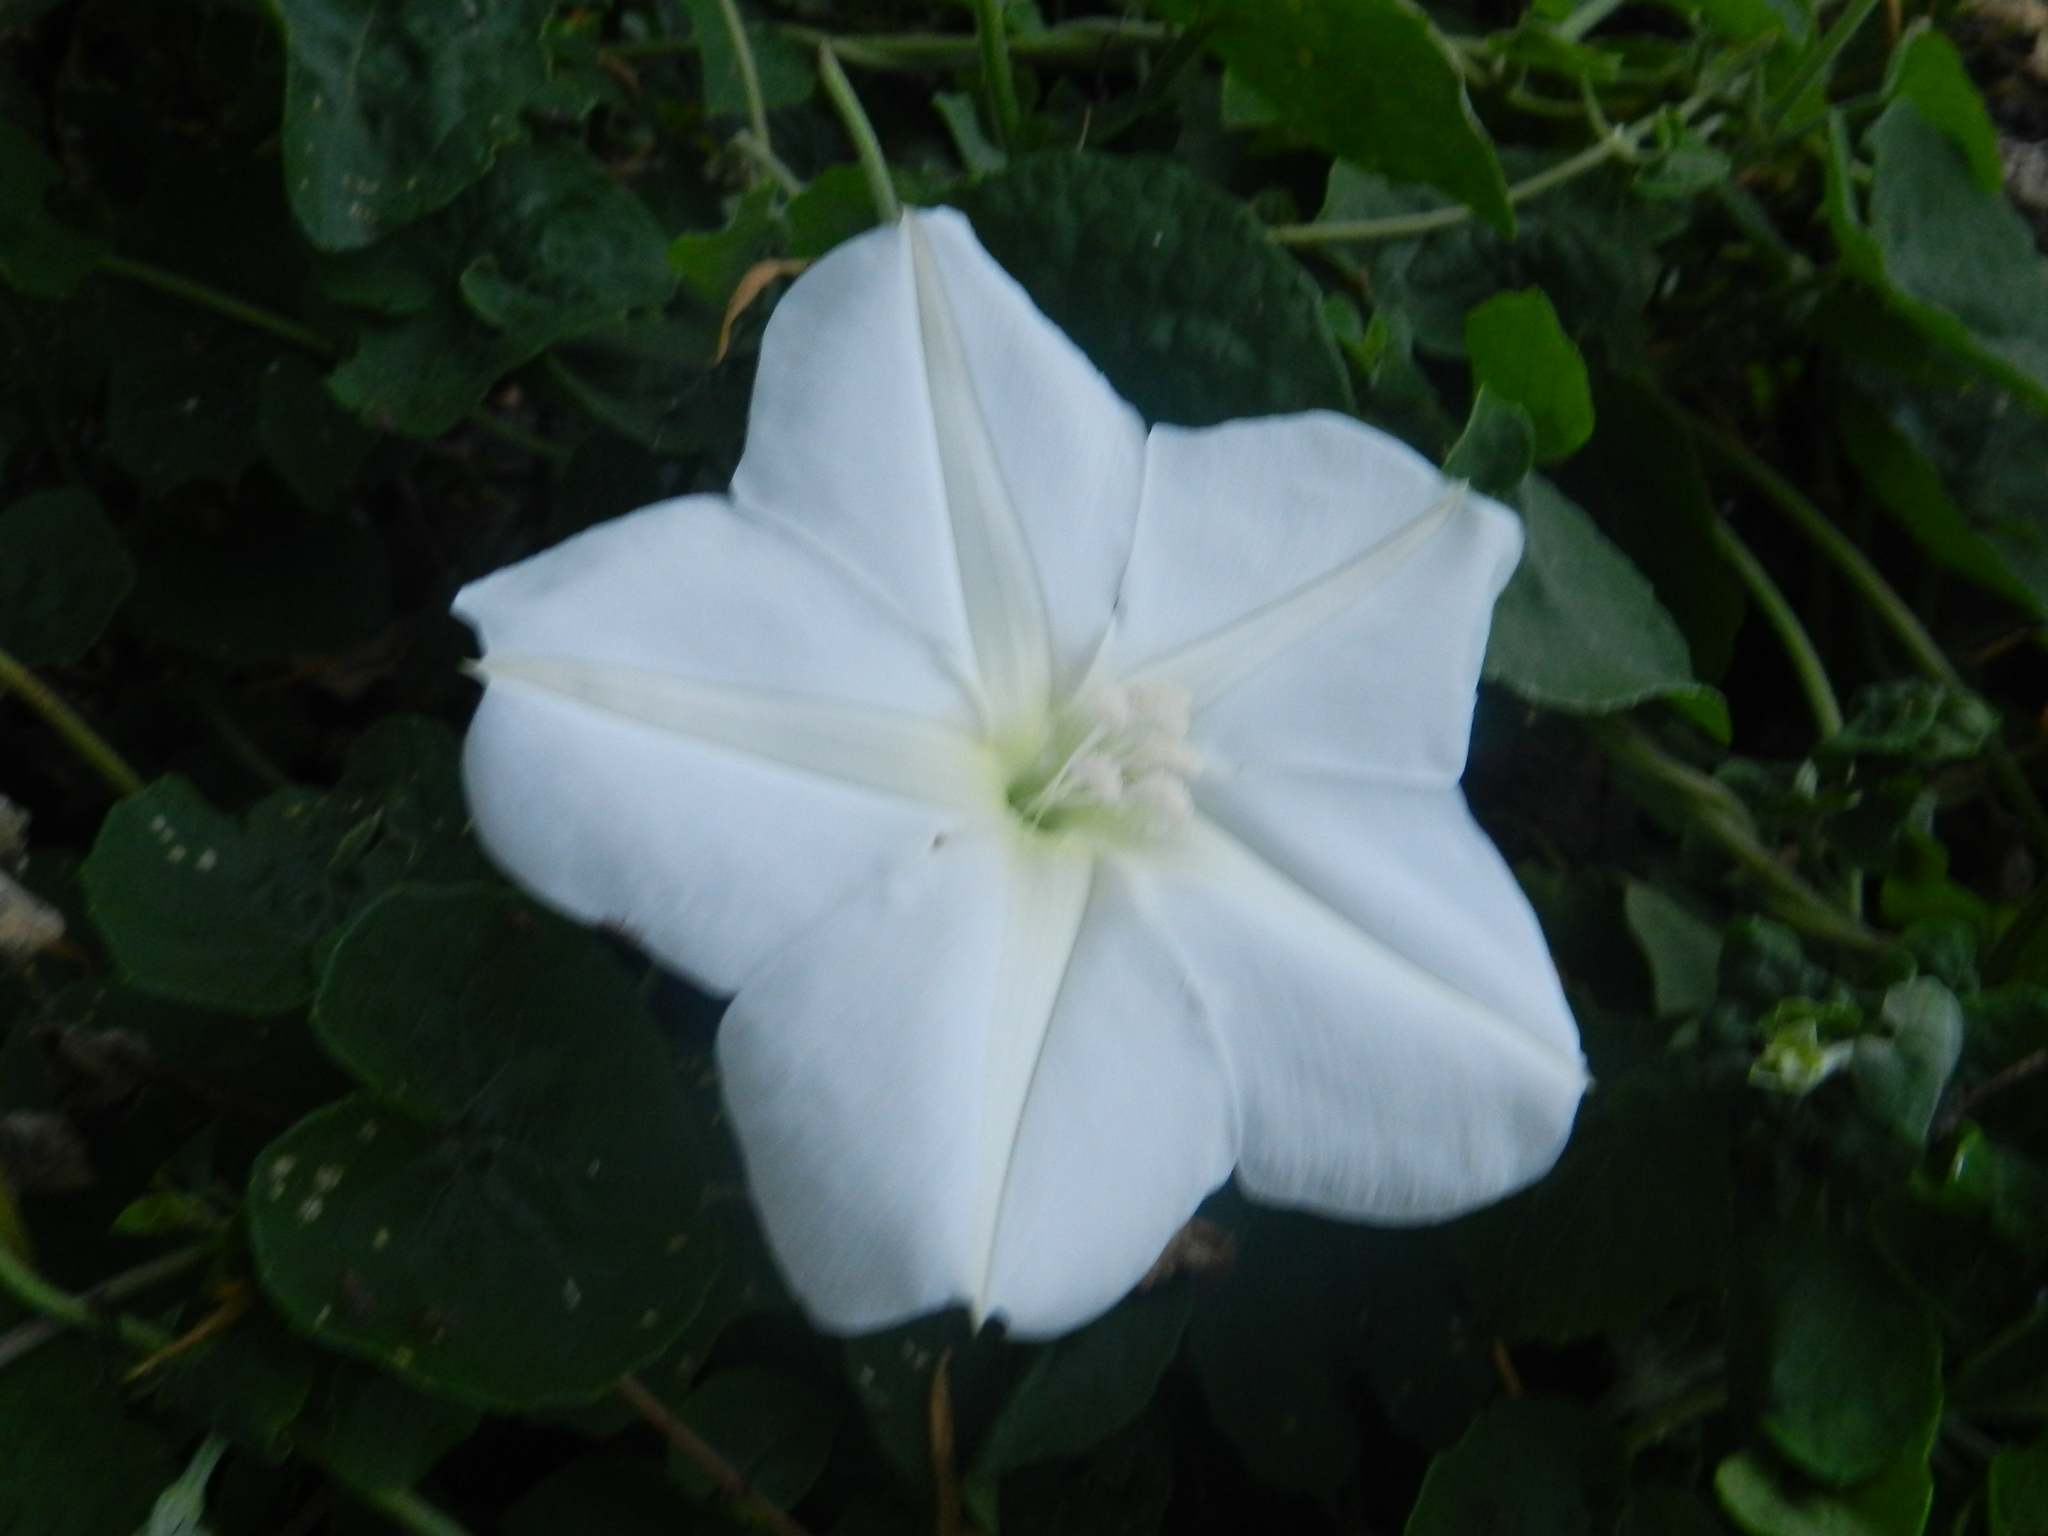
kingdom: Plantae
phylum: Tracheophyta
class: Magnoliopsida
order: Solanales
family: Convolvulaceae
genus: Ipomoea
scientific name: Ipomoea alba
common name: Moonflower
